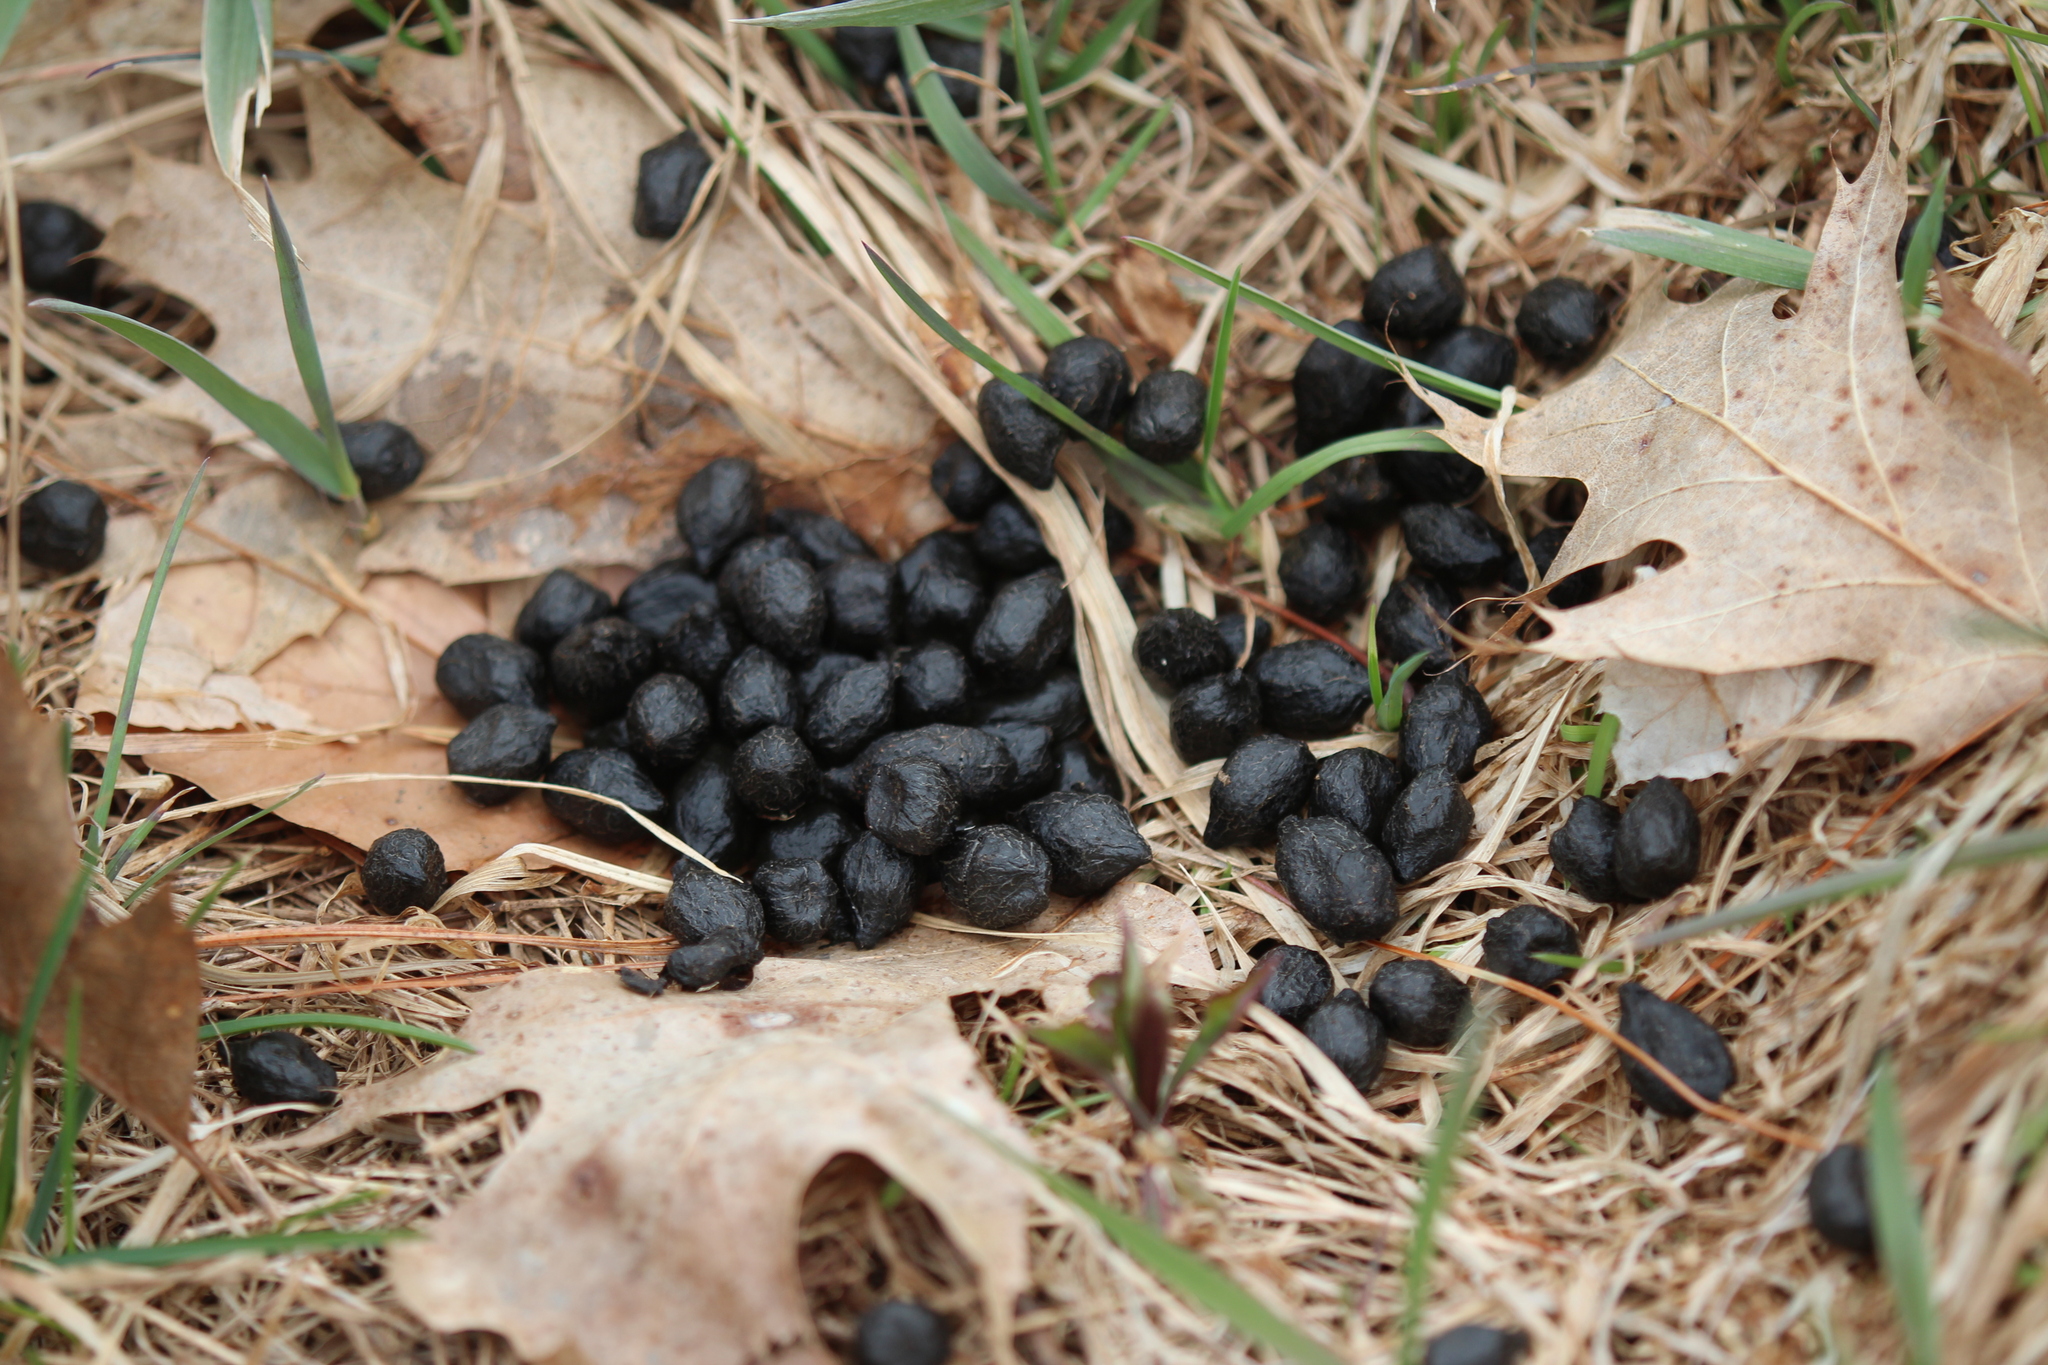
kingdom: Animalia
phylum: Chordata
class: Mammalia
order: Artiodactyla
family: Cervidae
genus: Odocoileus
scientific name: Odocoileus virginianus
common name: White-tailed deer
